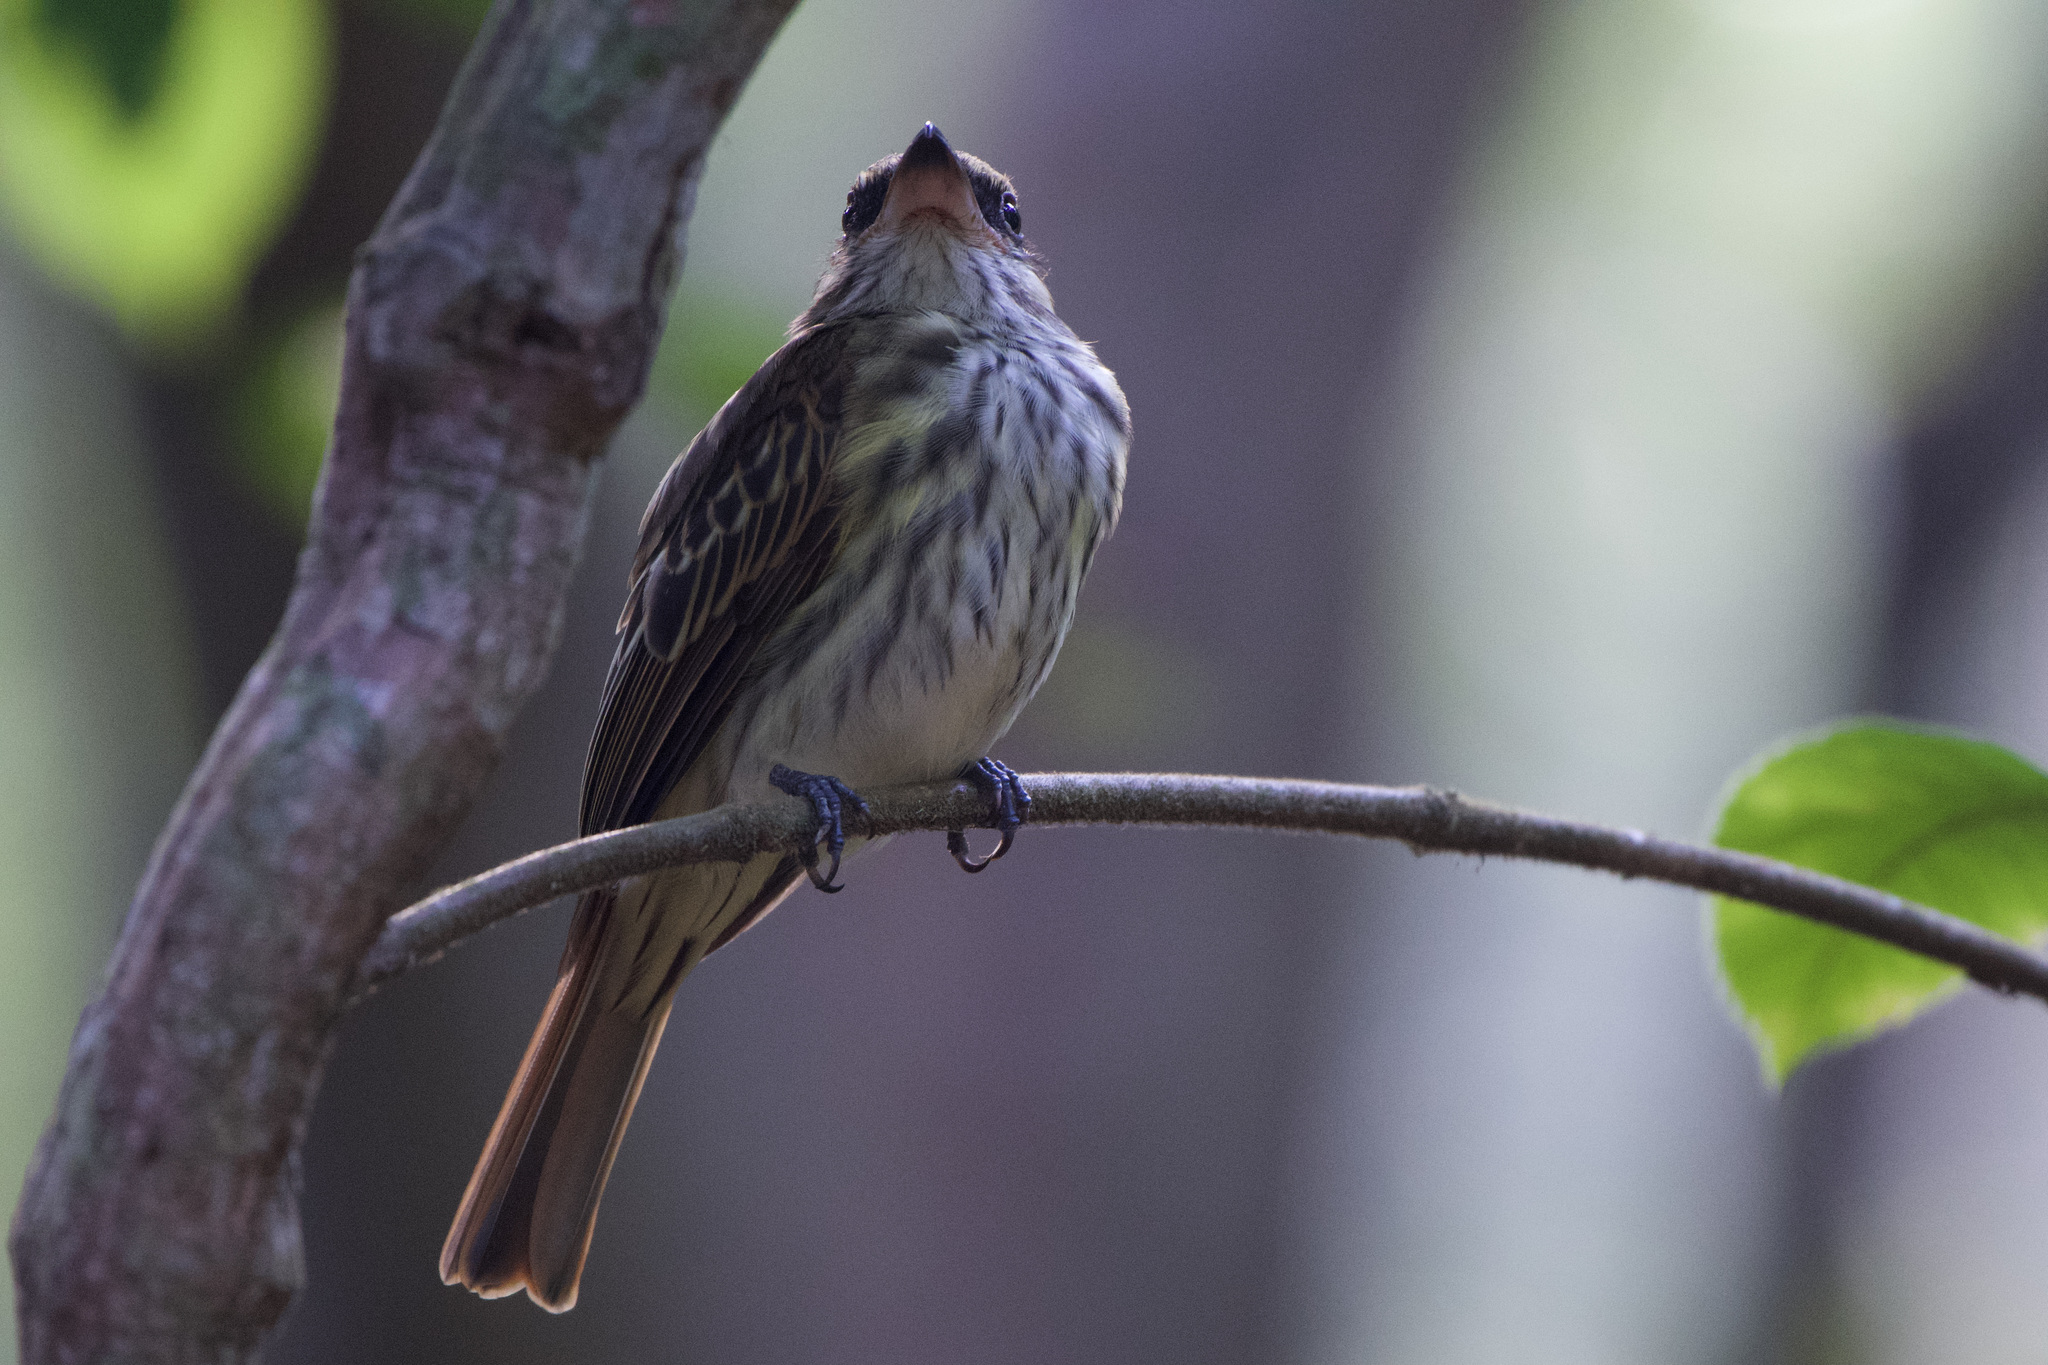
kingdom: Animalia
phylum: Chordata
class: Aves
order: Passeriformes
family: Tyrannidae
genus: Myiodynastes
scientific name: Myiodynastes maculatus
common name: Streaked flycatcher
